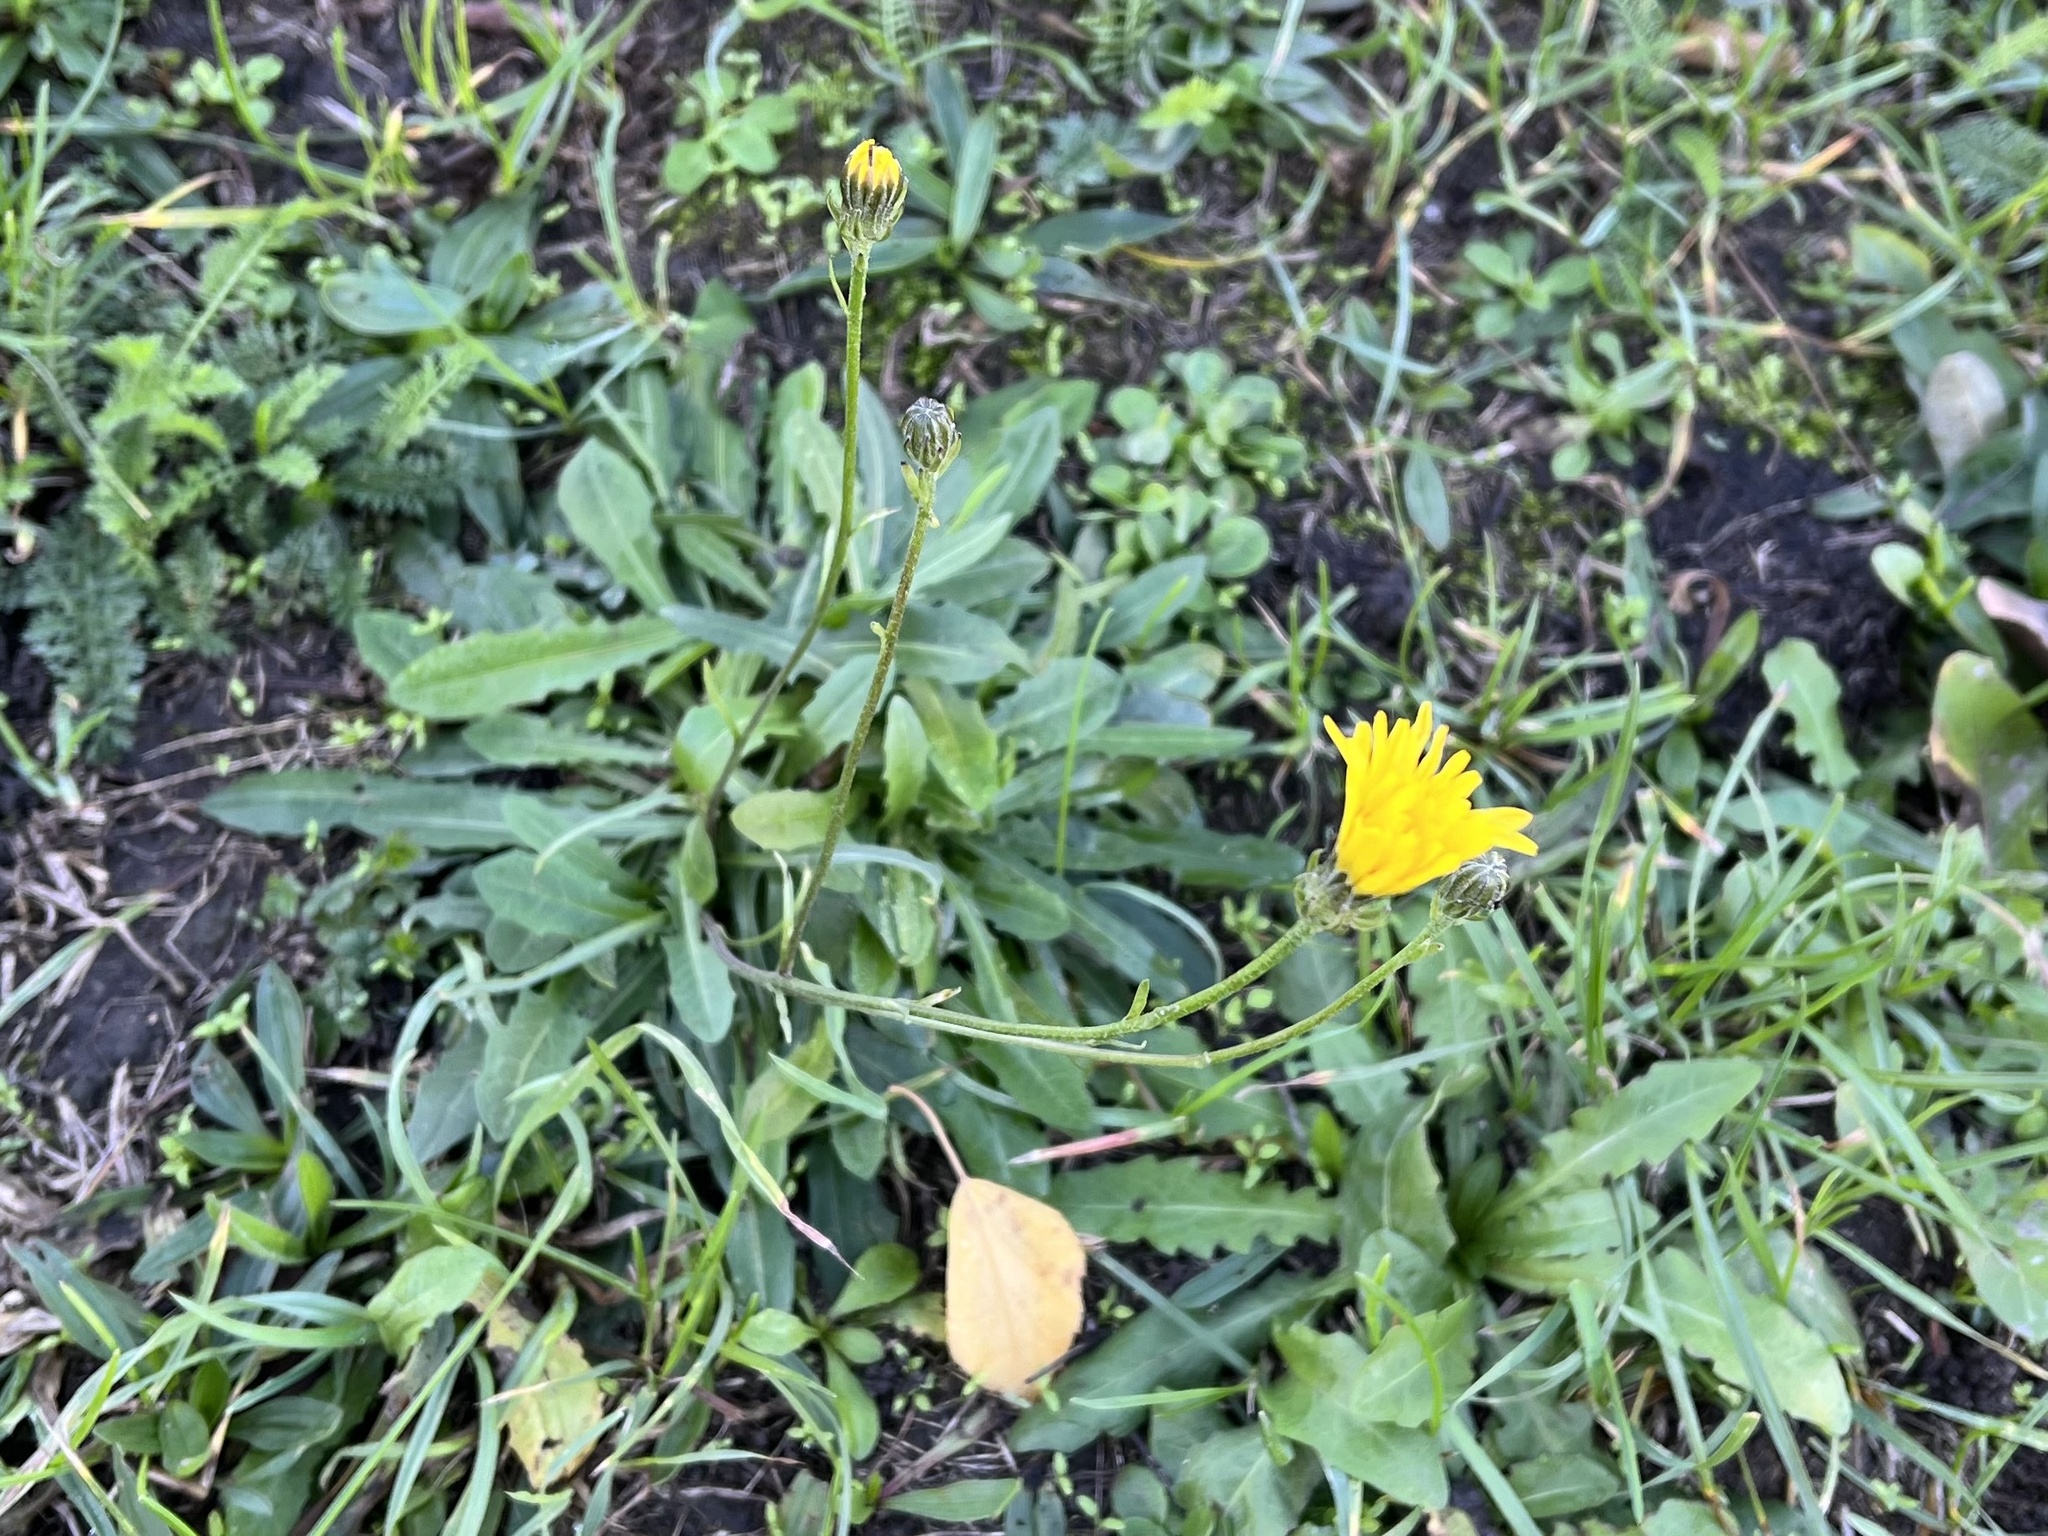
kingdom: Plantae
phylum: Tracheophyta
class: Magnoliopsida
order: Asterales
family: Asteraceae
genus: Crepis
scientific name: Crepis biennis
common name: Rough hawk's-beard
